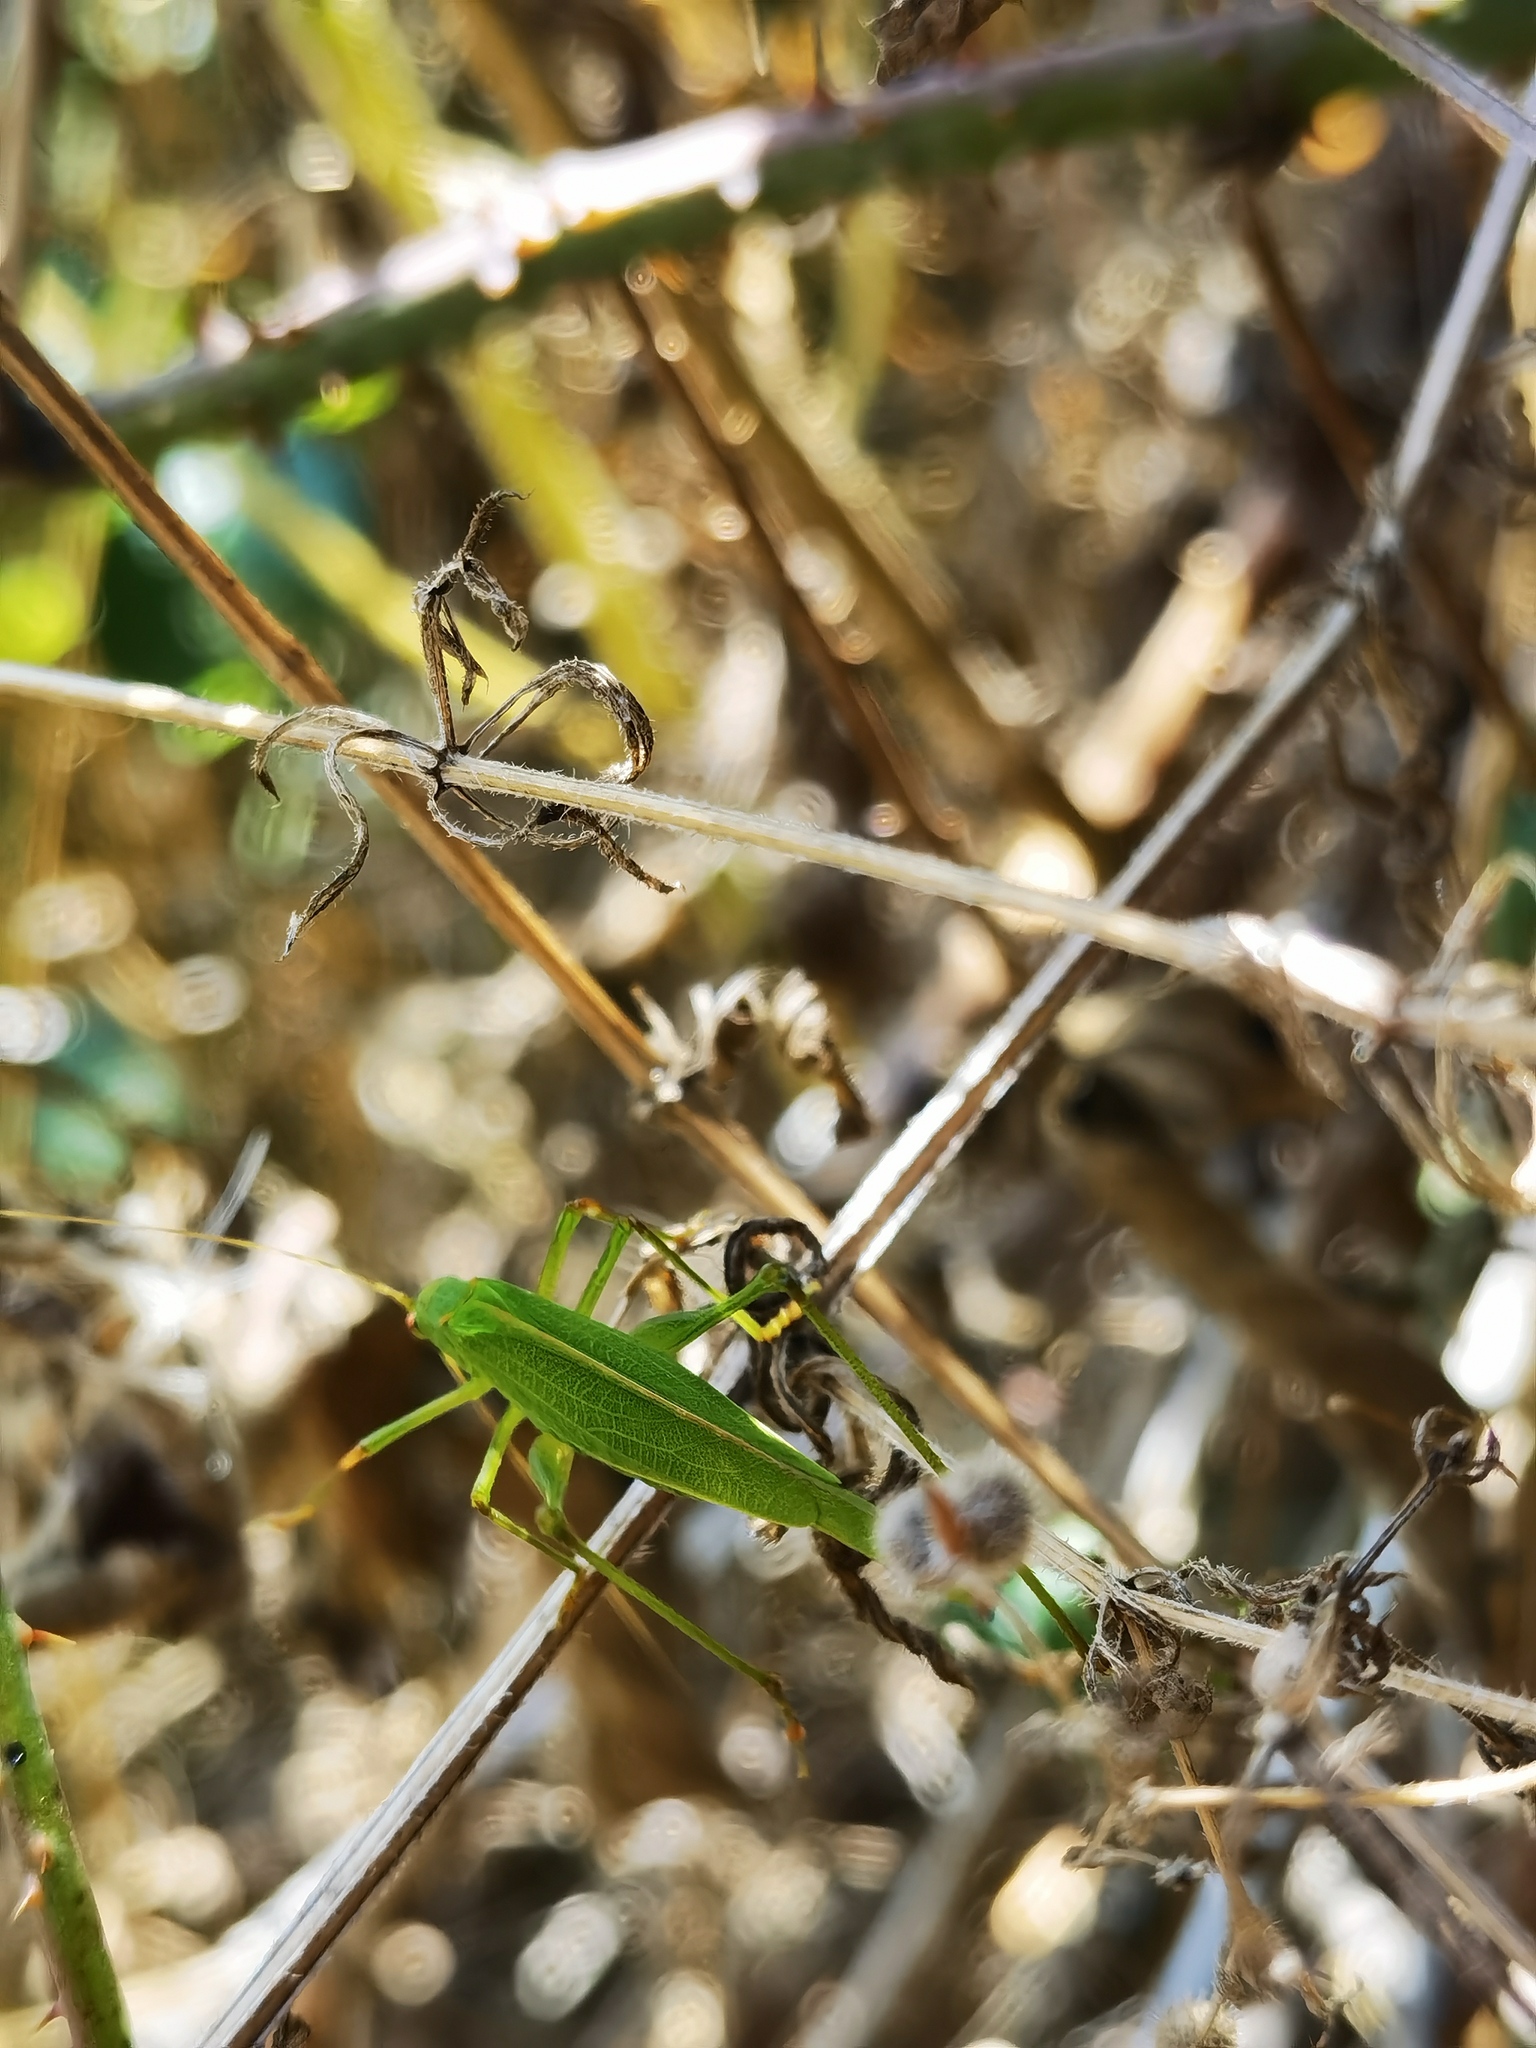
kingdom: Animalia
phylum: Arthropoda
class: Insecta
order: Orthoptera
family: Tettigoniidae
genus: Phaneroptera
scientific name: Phaneroptera falcata
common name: Sickle-bearing bush-cricket
